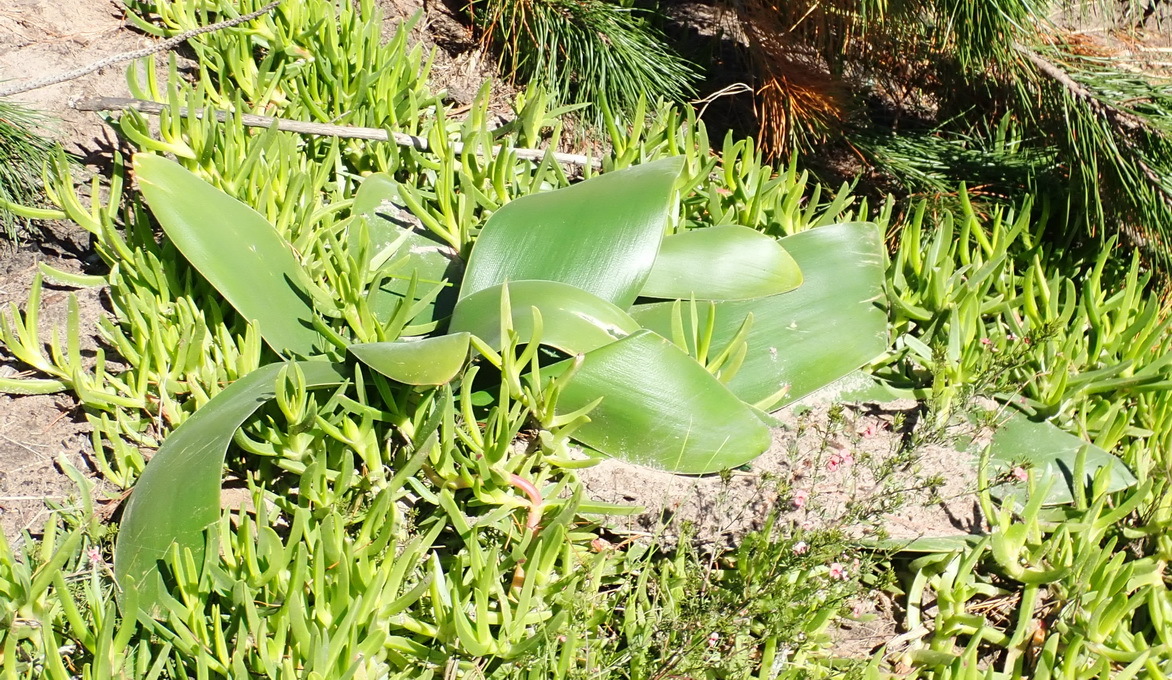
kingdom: Plantae
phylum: Tracheophyta
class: Liliopsida
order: Asparagales
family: Amaryllidaceae
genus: Brunsvigia
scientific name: Brunsvigia orientalis
